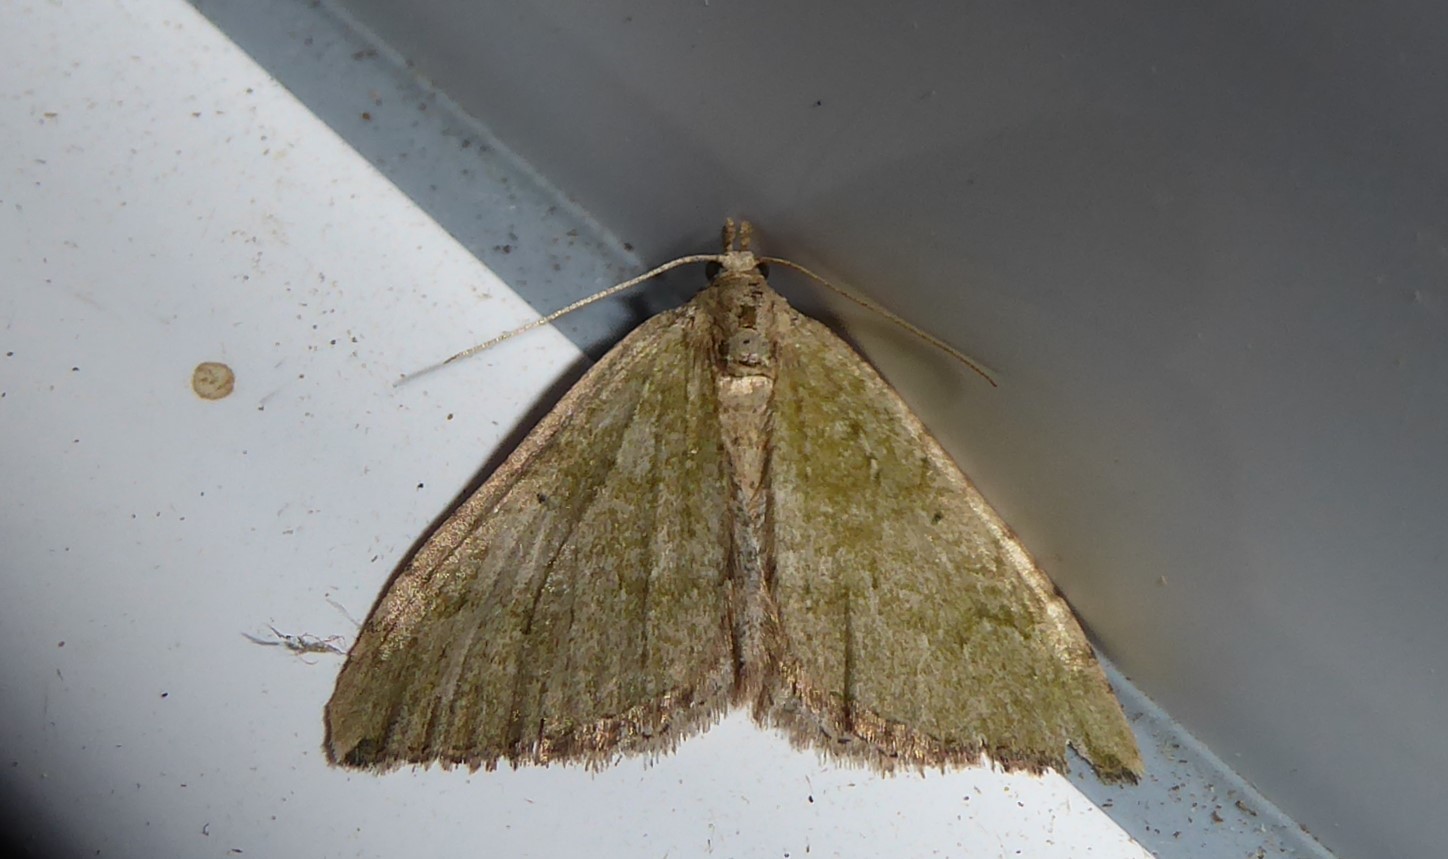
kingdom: Animalia
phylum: Arthropoda
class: Insecta
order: Lepidoptera
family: Geometridae
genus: Epyaxa
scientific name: Epyaxa rosearia
